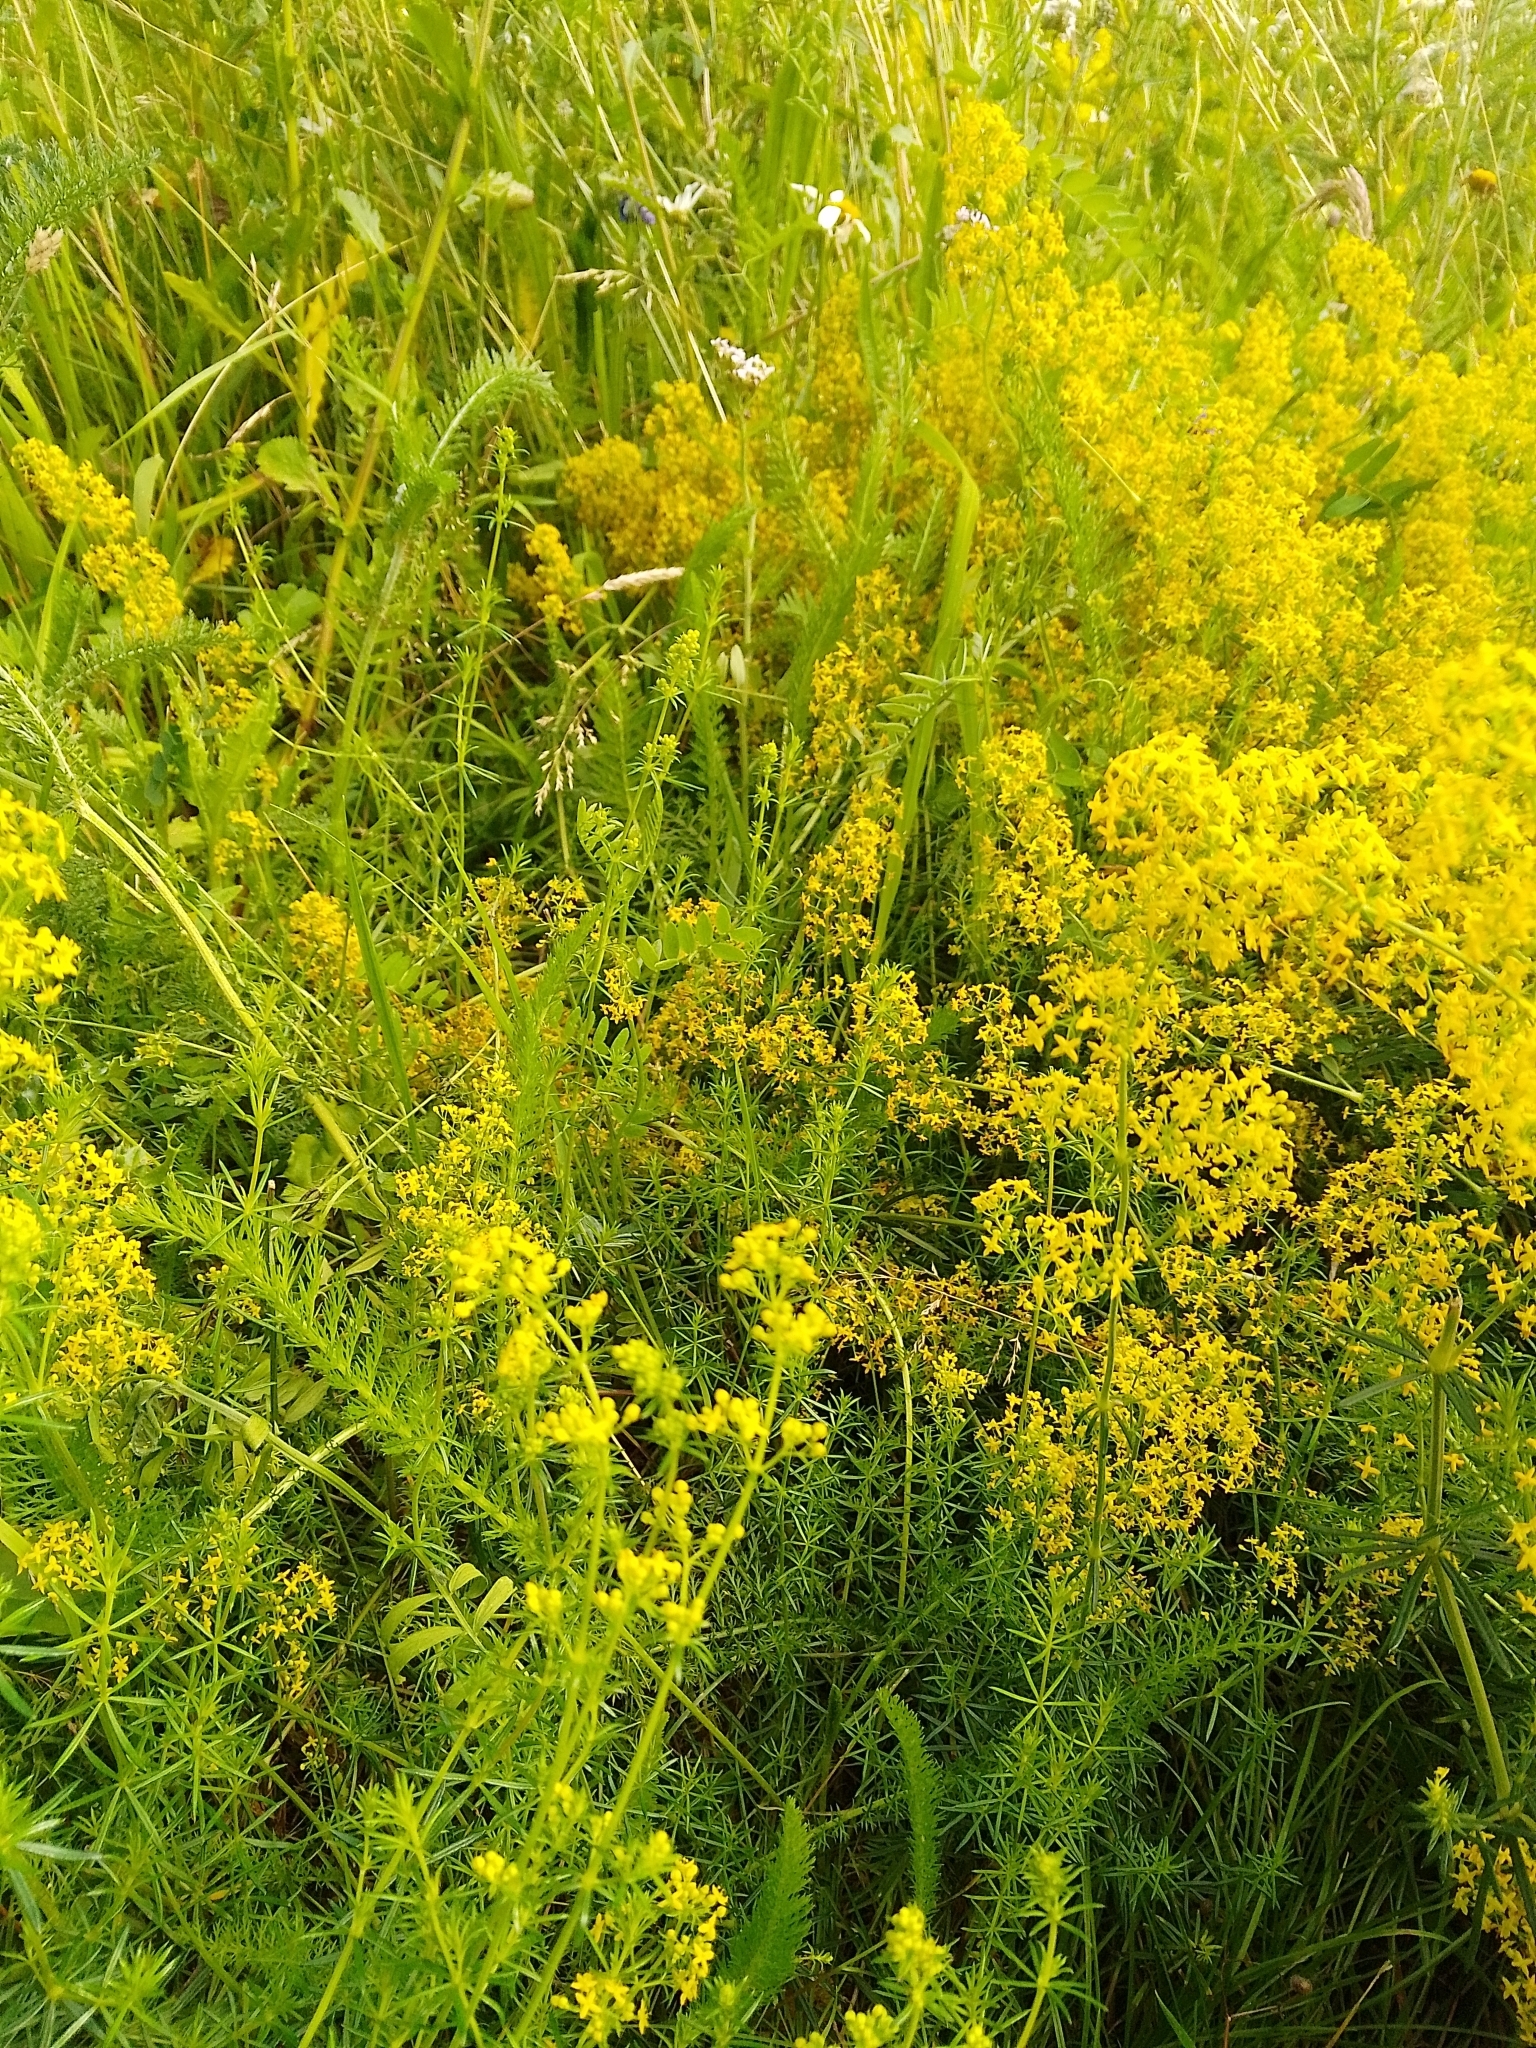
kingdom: Plantae
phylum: Tracheophyta
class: Magnoliopsida
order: Gentianales
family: Rubiaceae
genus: Galium
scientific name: Galium verum
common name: Lady's bedstraw
